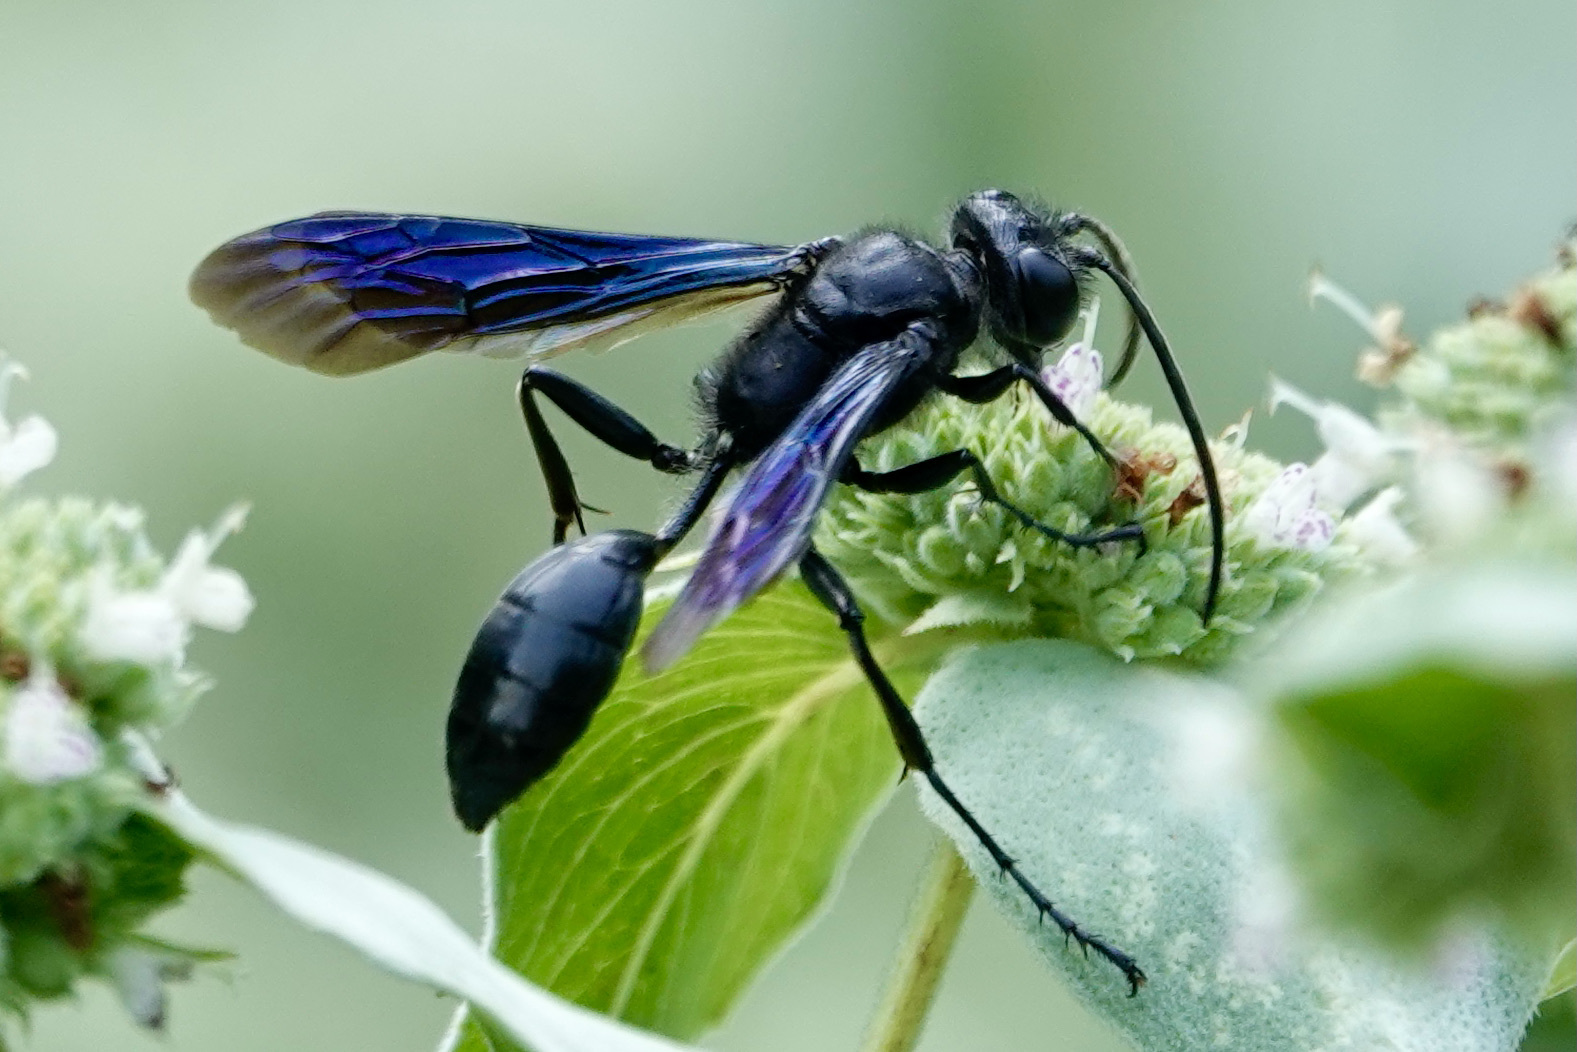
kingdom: Animalia
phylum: Arthropoda
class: Insecta
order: Hymenoptera
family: Sphecidae
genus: Isodontia
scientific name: Isodontia philadelphica
